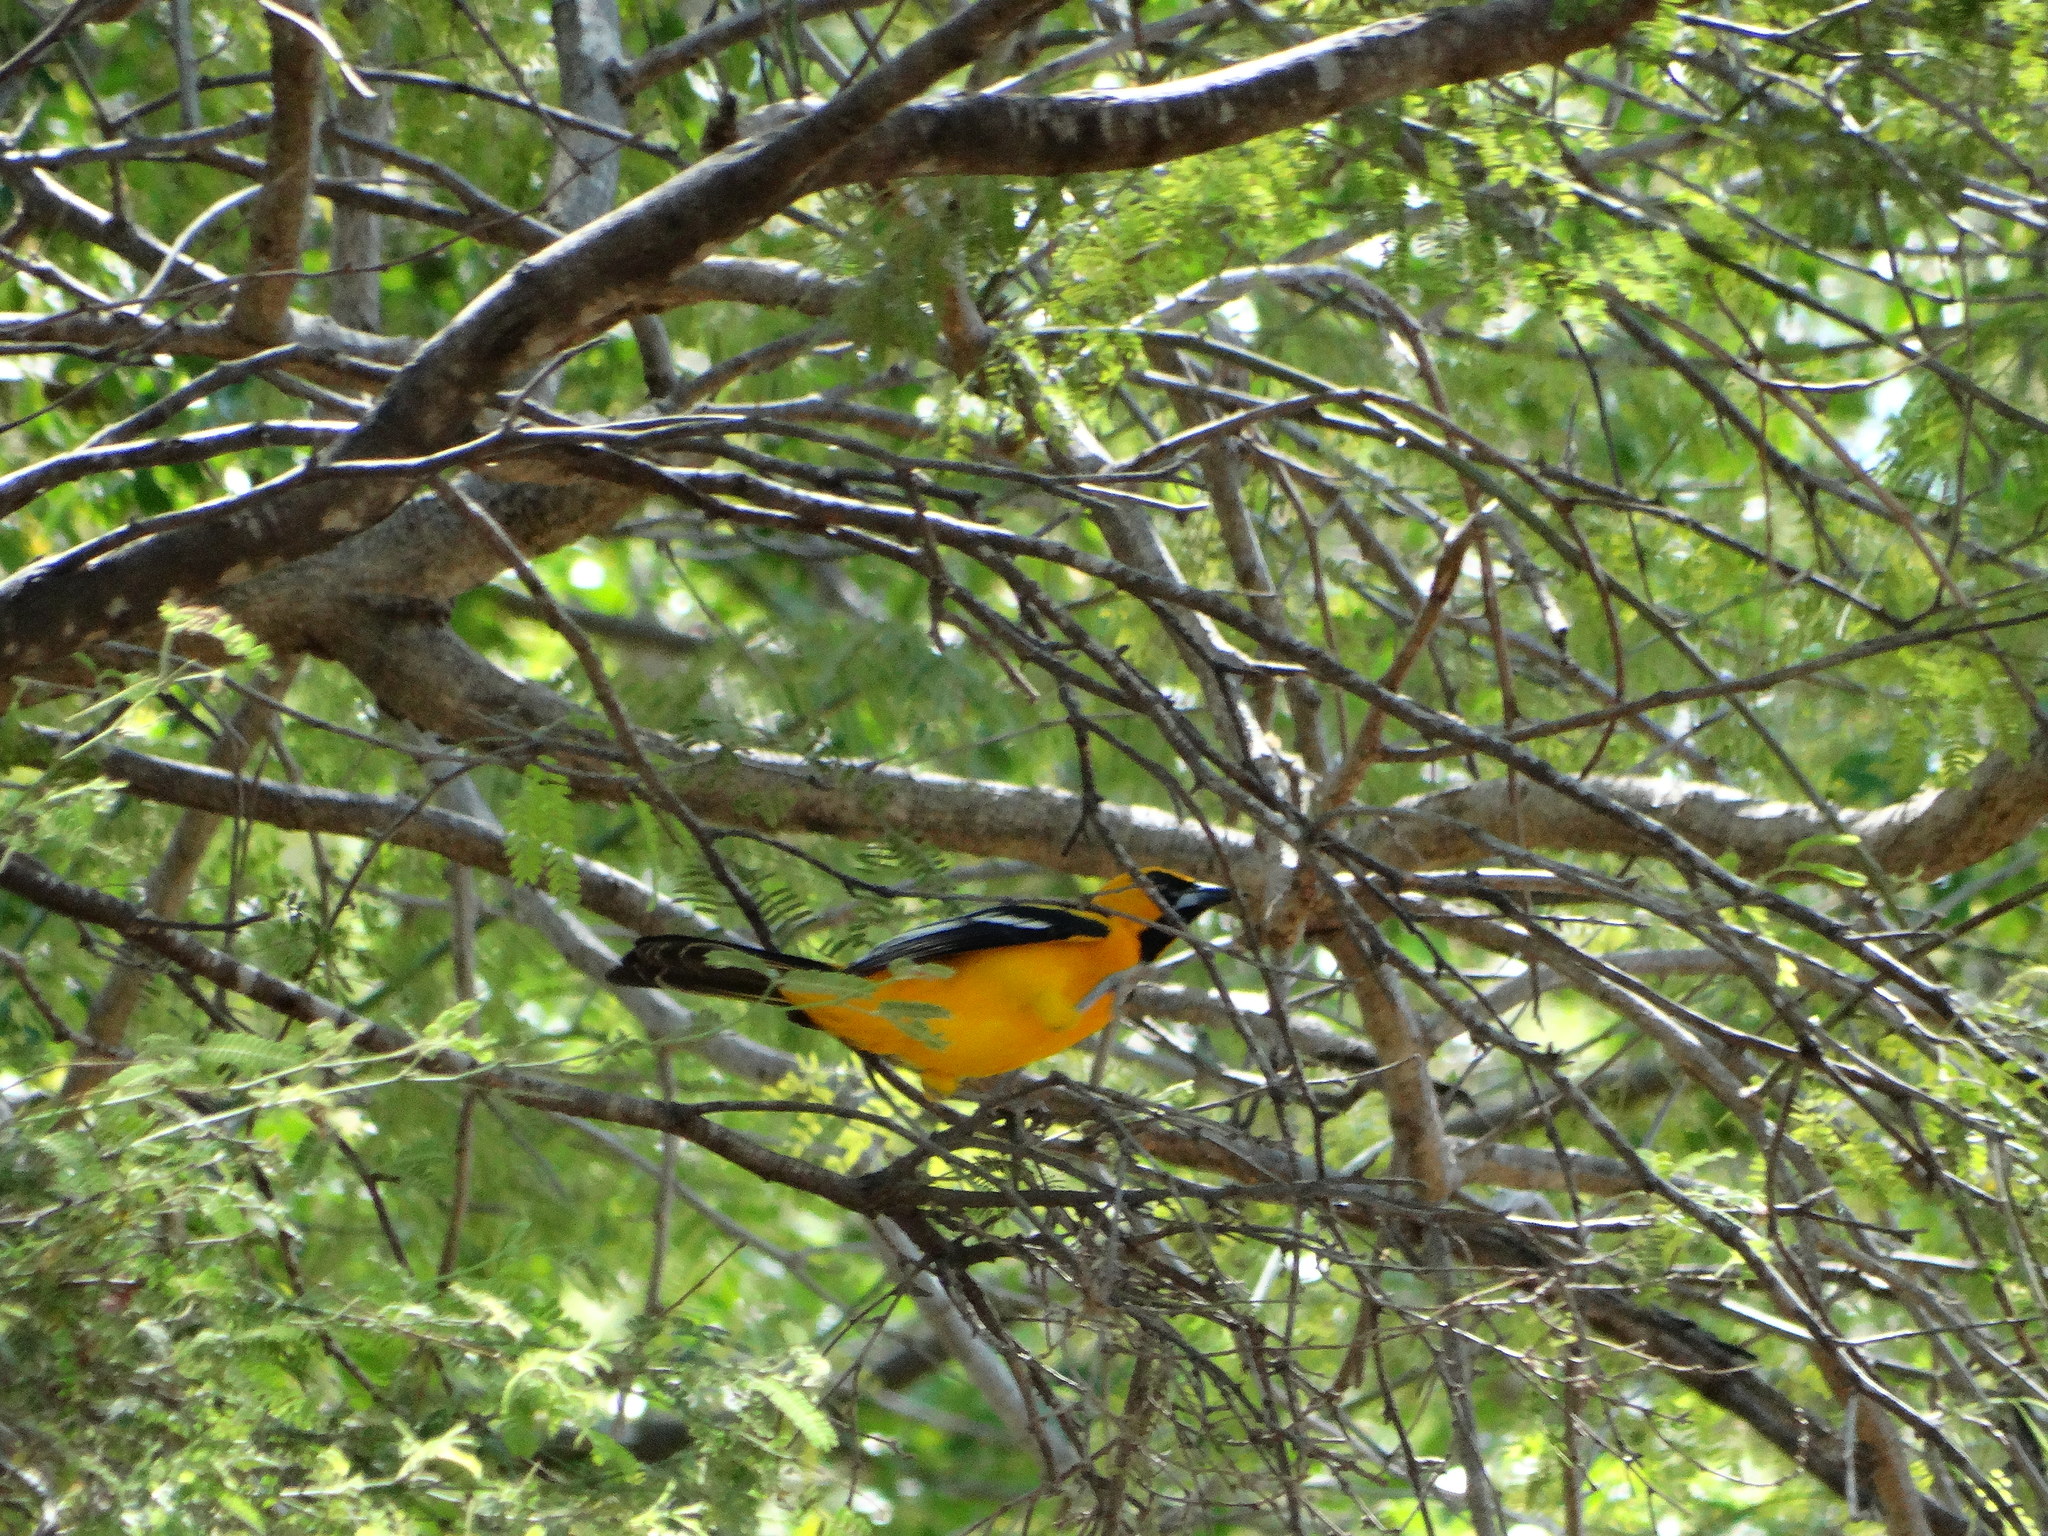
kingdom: Animalia
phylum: Chordata
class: Aves
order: Passeriformes
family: Icteridae
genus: Icterus
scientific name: Icterus gularis
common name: Altamira oriole
